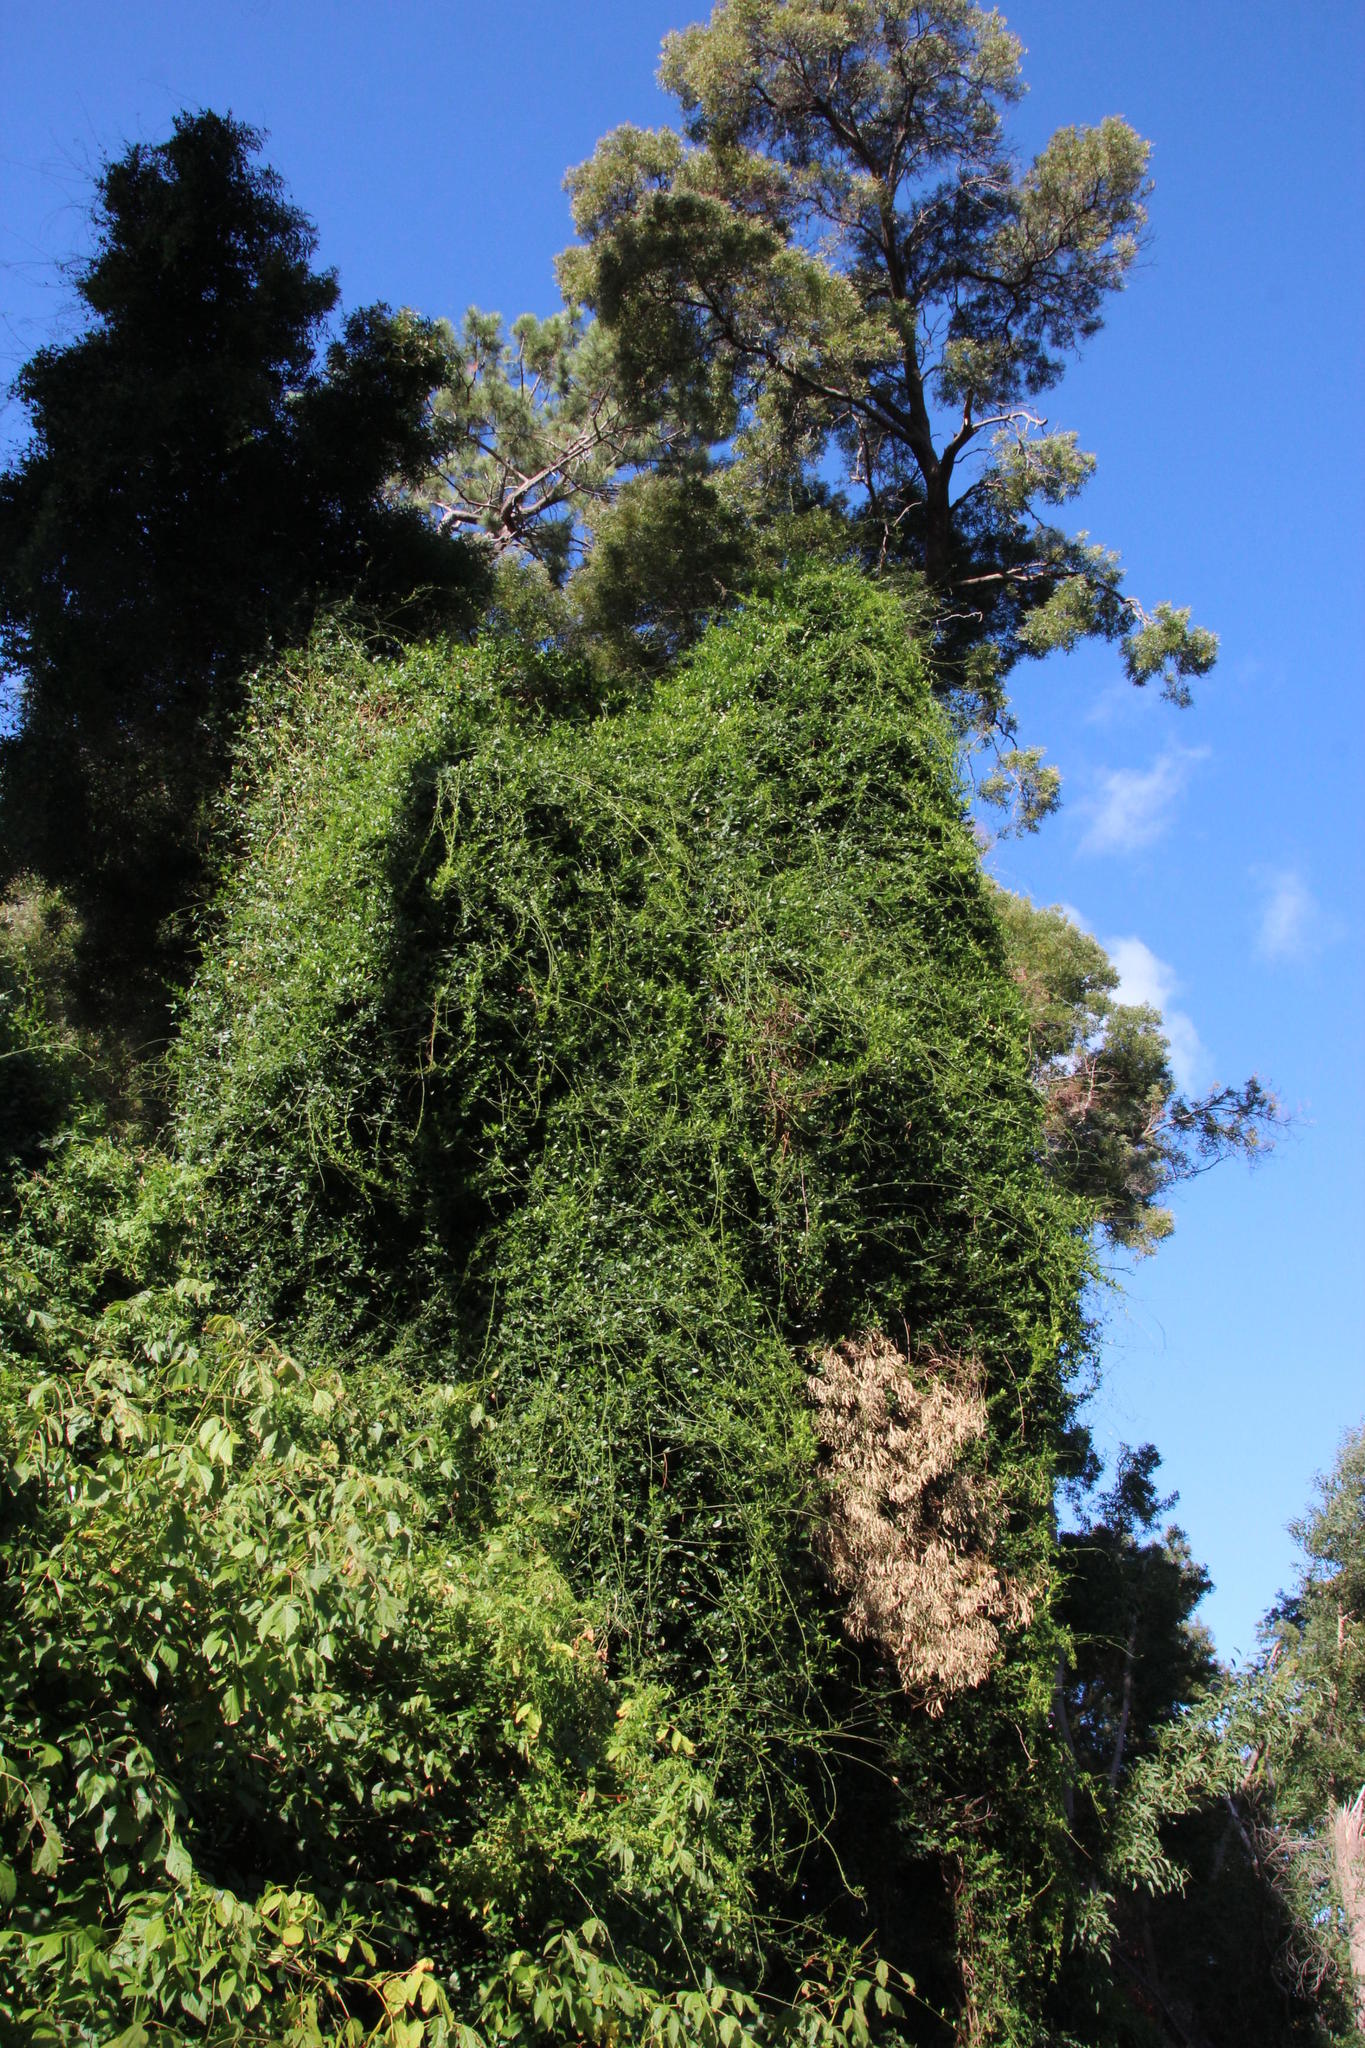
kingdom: Plantae
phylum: Tracheophyta
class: Magnoliopsida
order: Gentianales
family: Apocynaceae
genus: Secamone
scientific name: Secamone alpini
